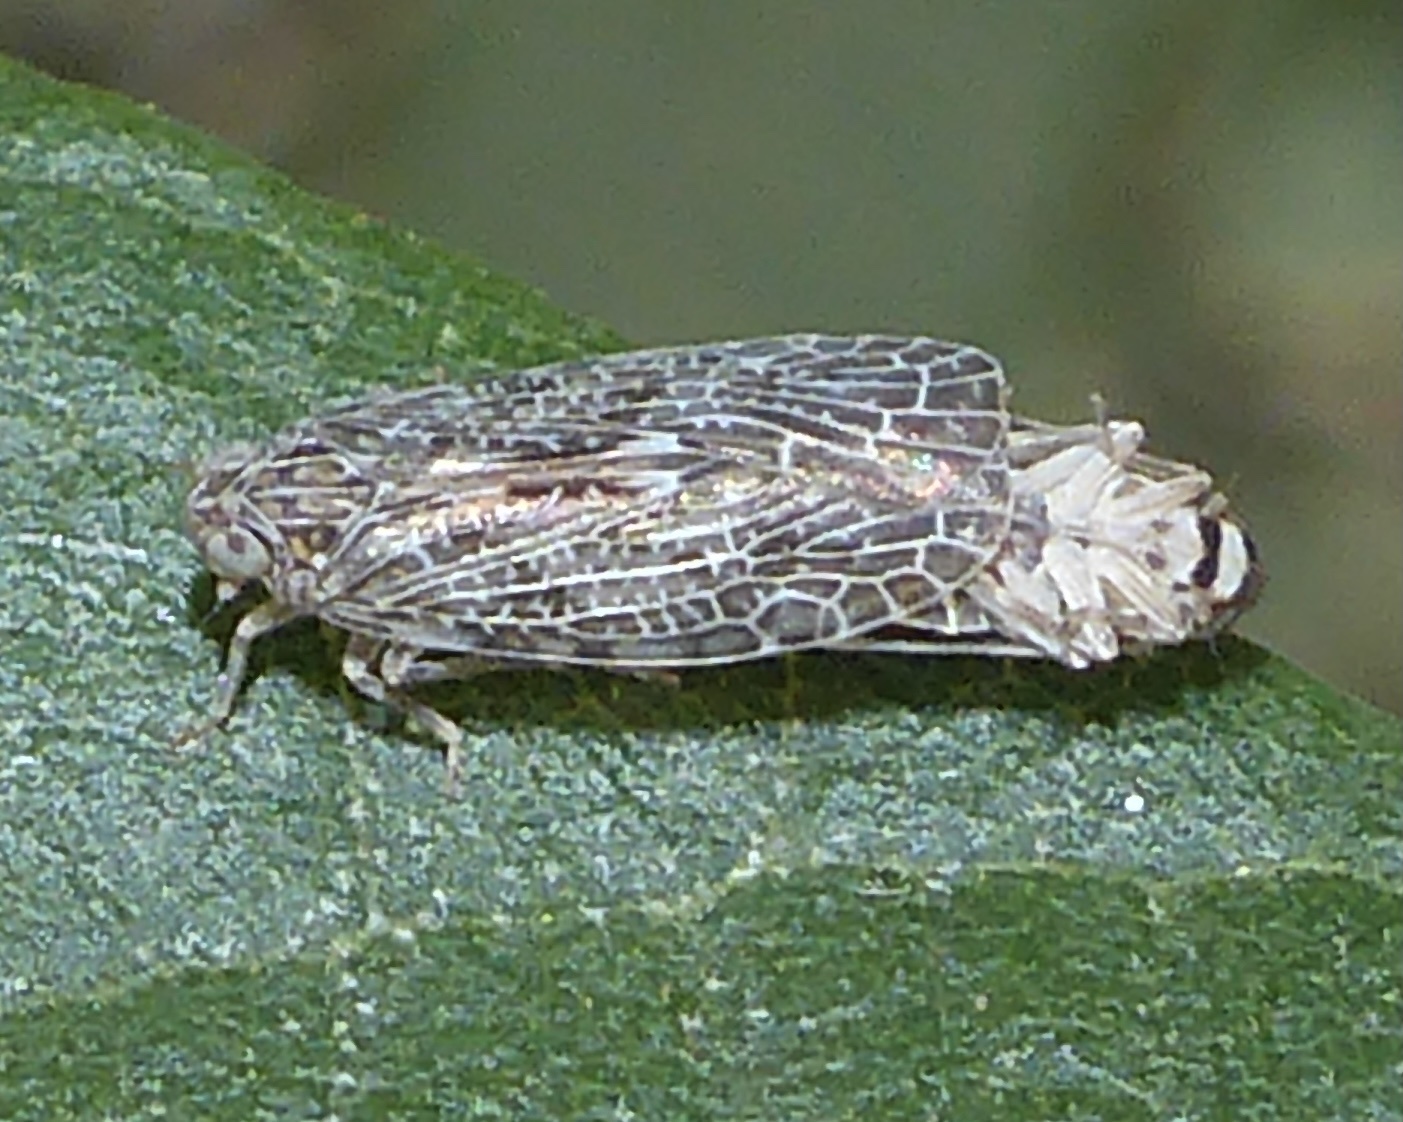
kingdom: Animalia
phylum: Arthropoda
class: Insecta
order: Hemiptera
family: Achilidae
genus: Momar
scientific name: Momar maculifrons
